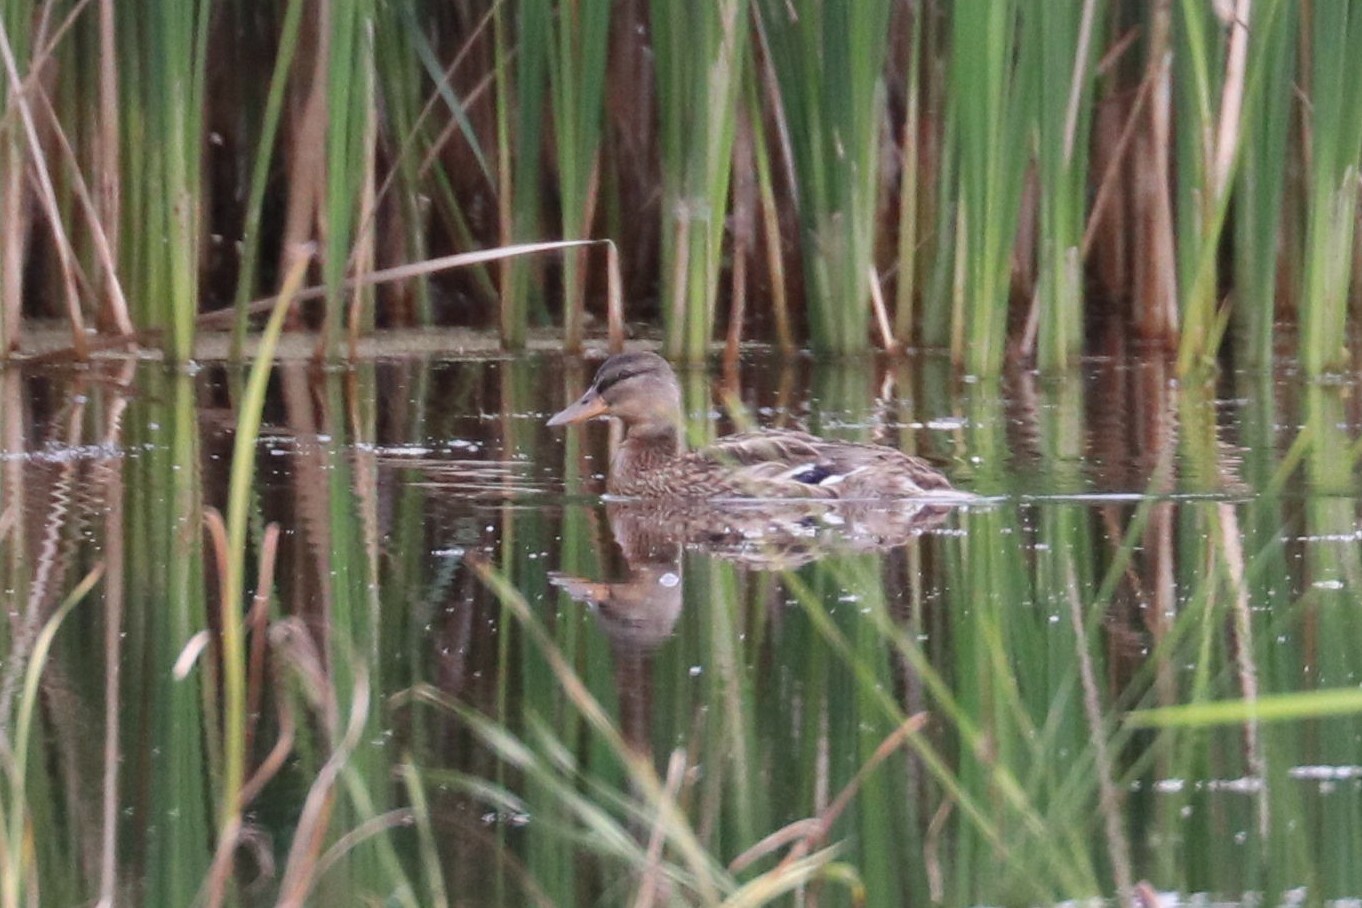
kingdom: Animalia
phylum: Chordata
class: Aves
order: Anseriformes
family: Anatidae
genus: Anas
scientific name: Anas platyrhynchos
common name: Mallard
